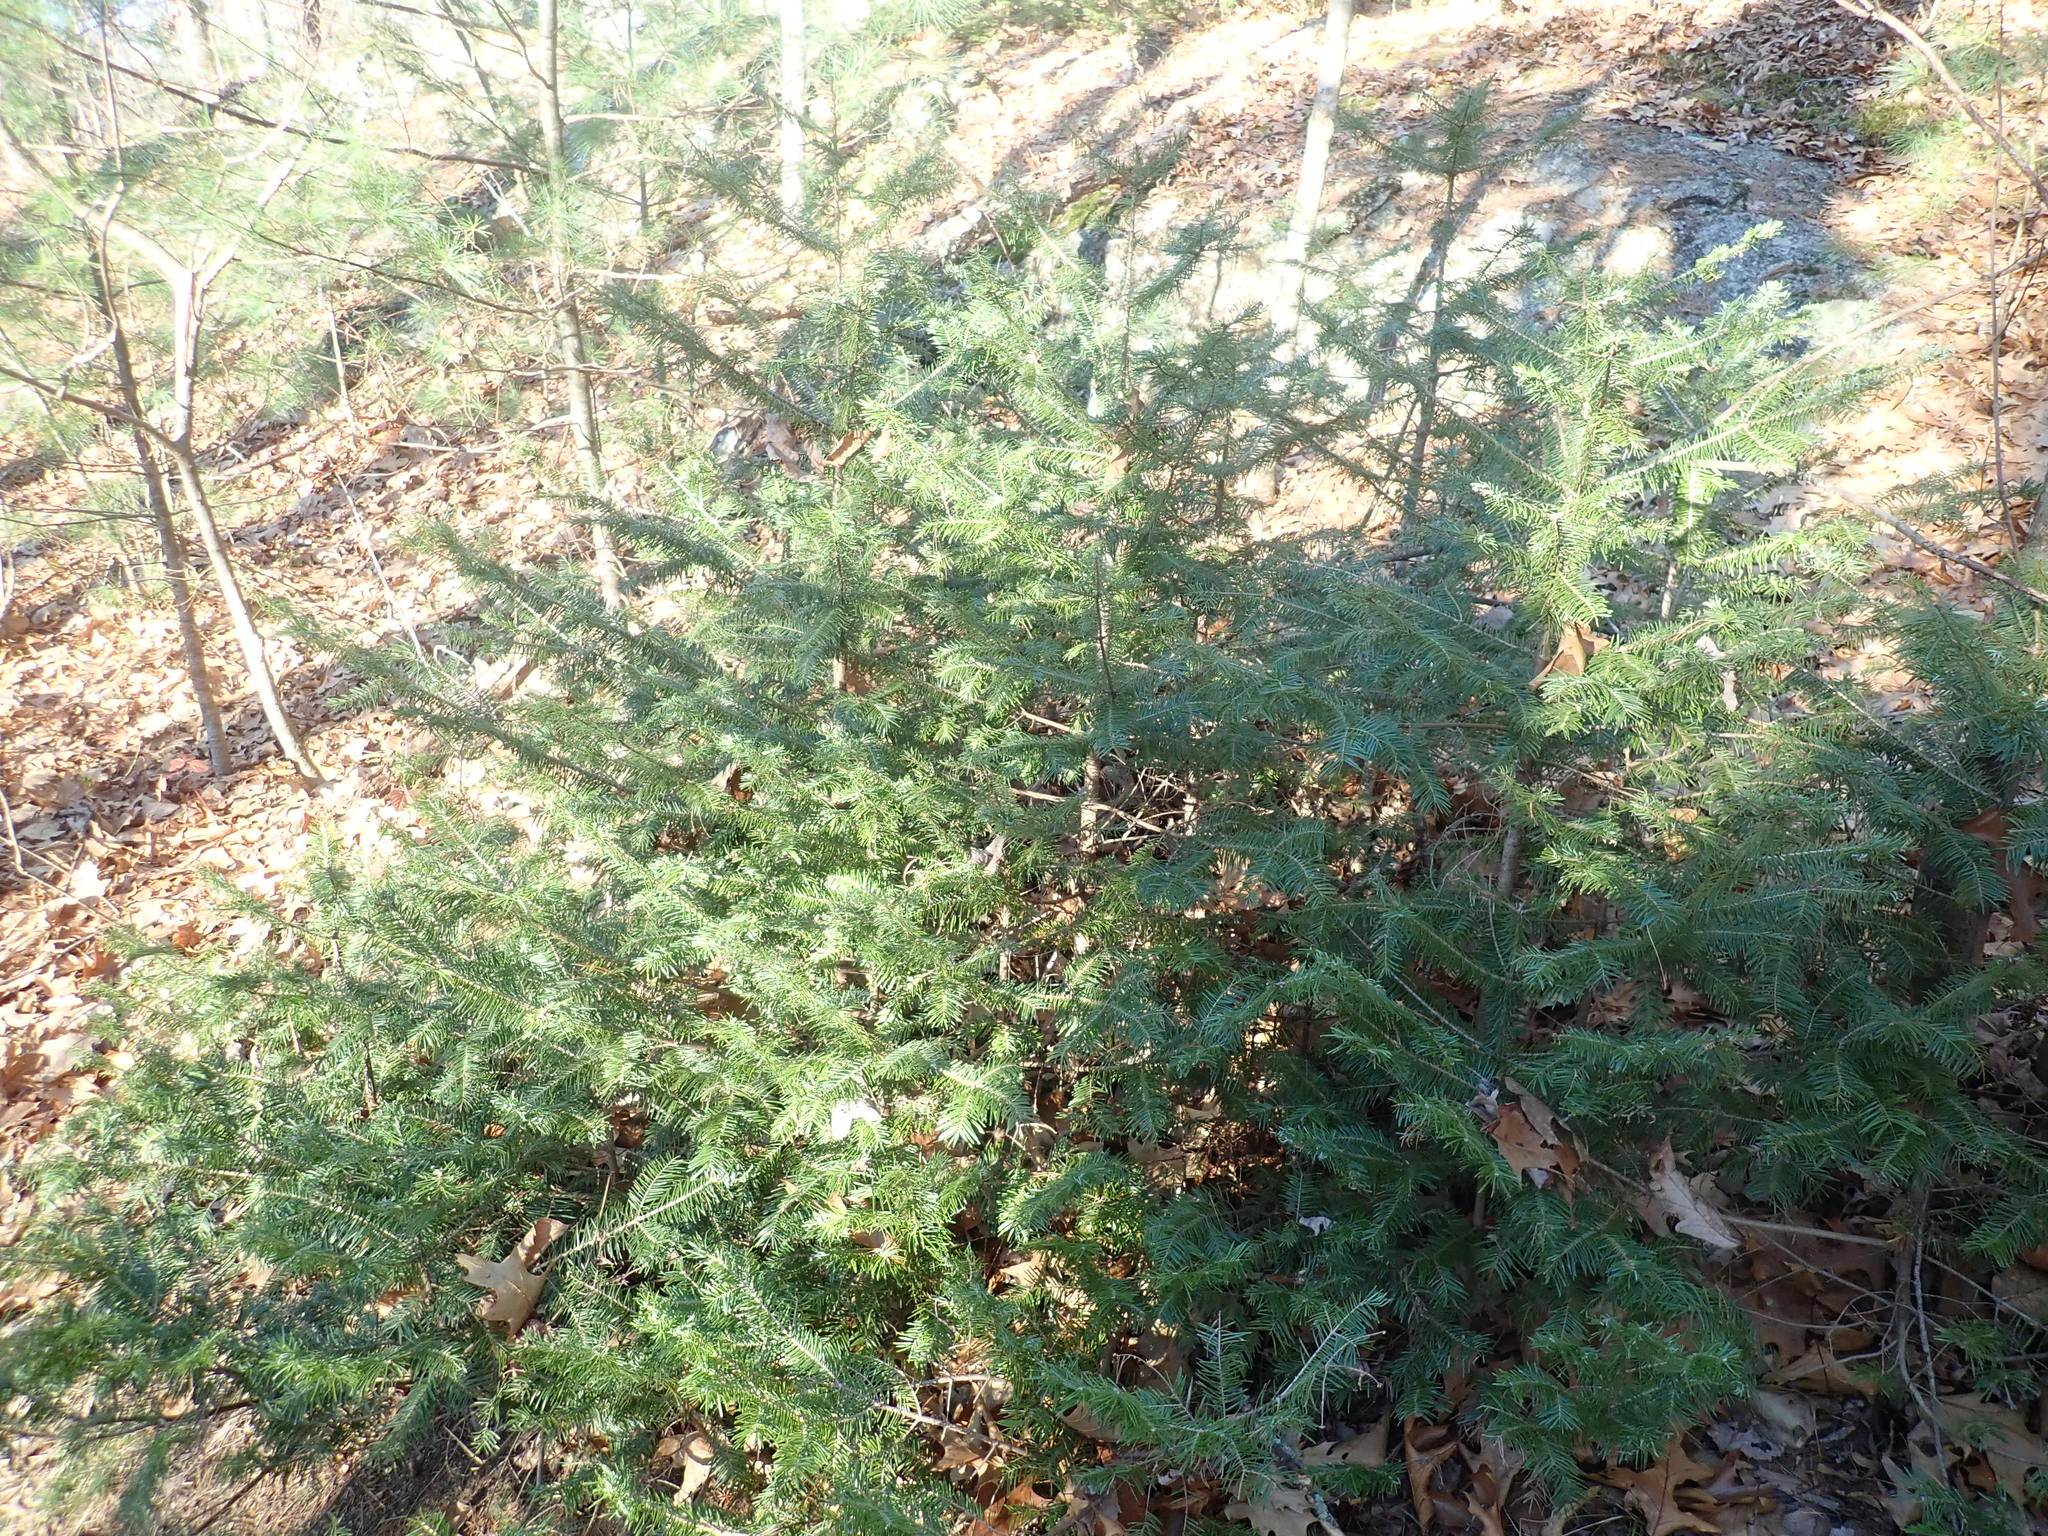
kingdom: Plantae
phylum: Tracheophyta
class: Pinopsida
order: Pinales
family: Pinaceae
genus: Abies
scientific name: Abies balsamea
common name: Balsam fir
